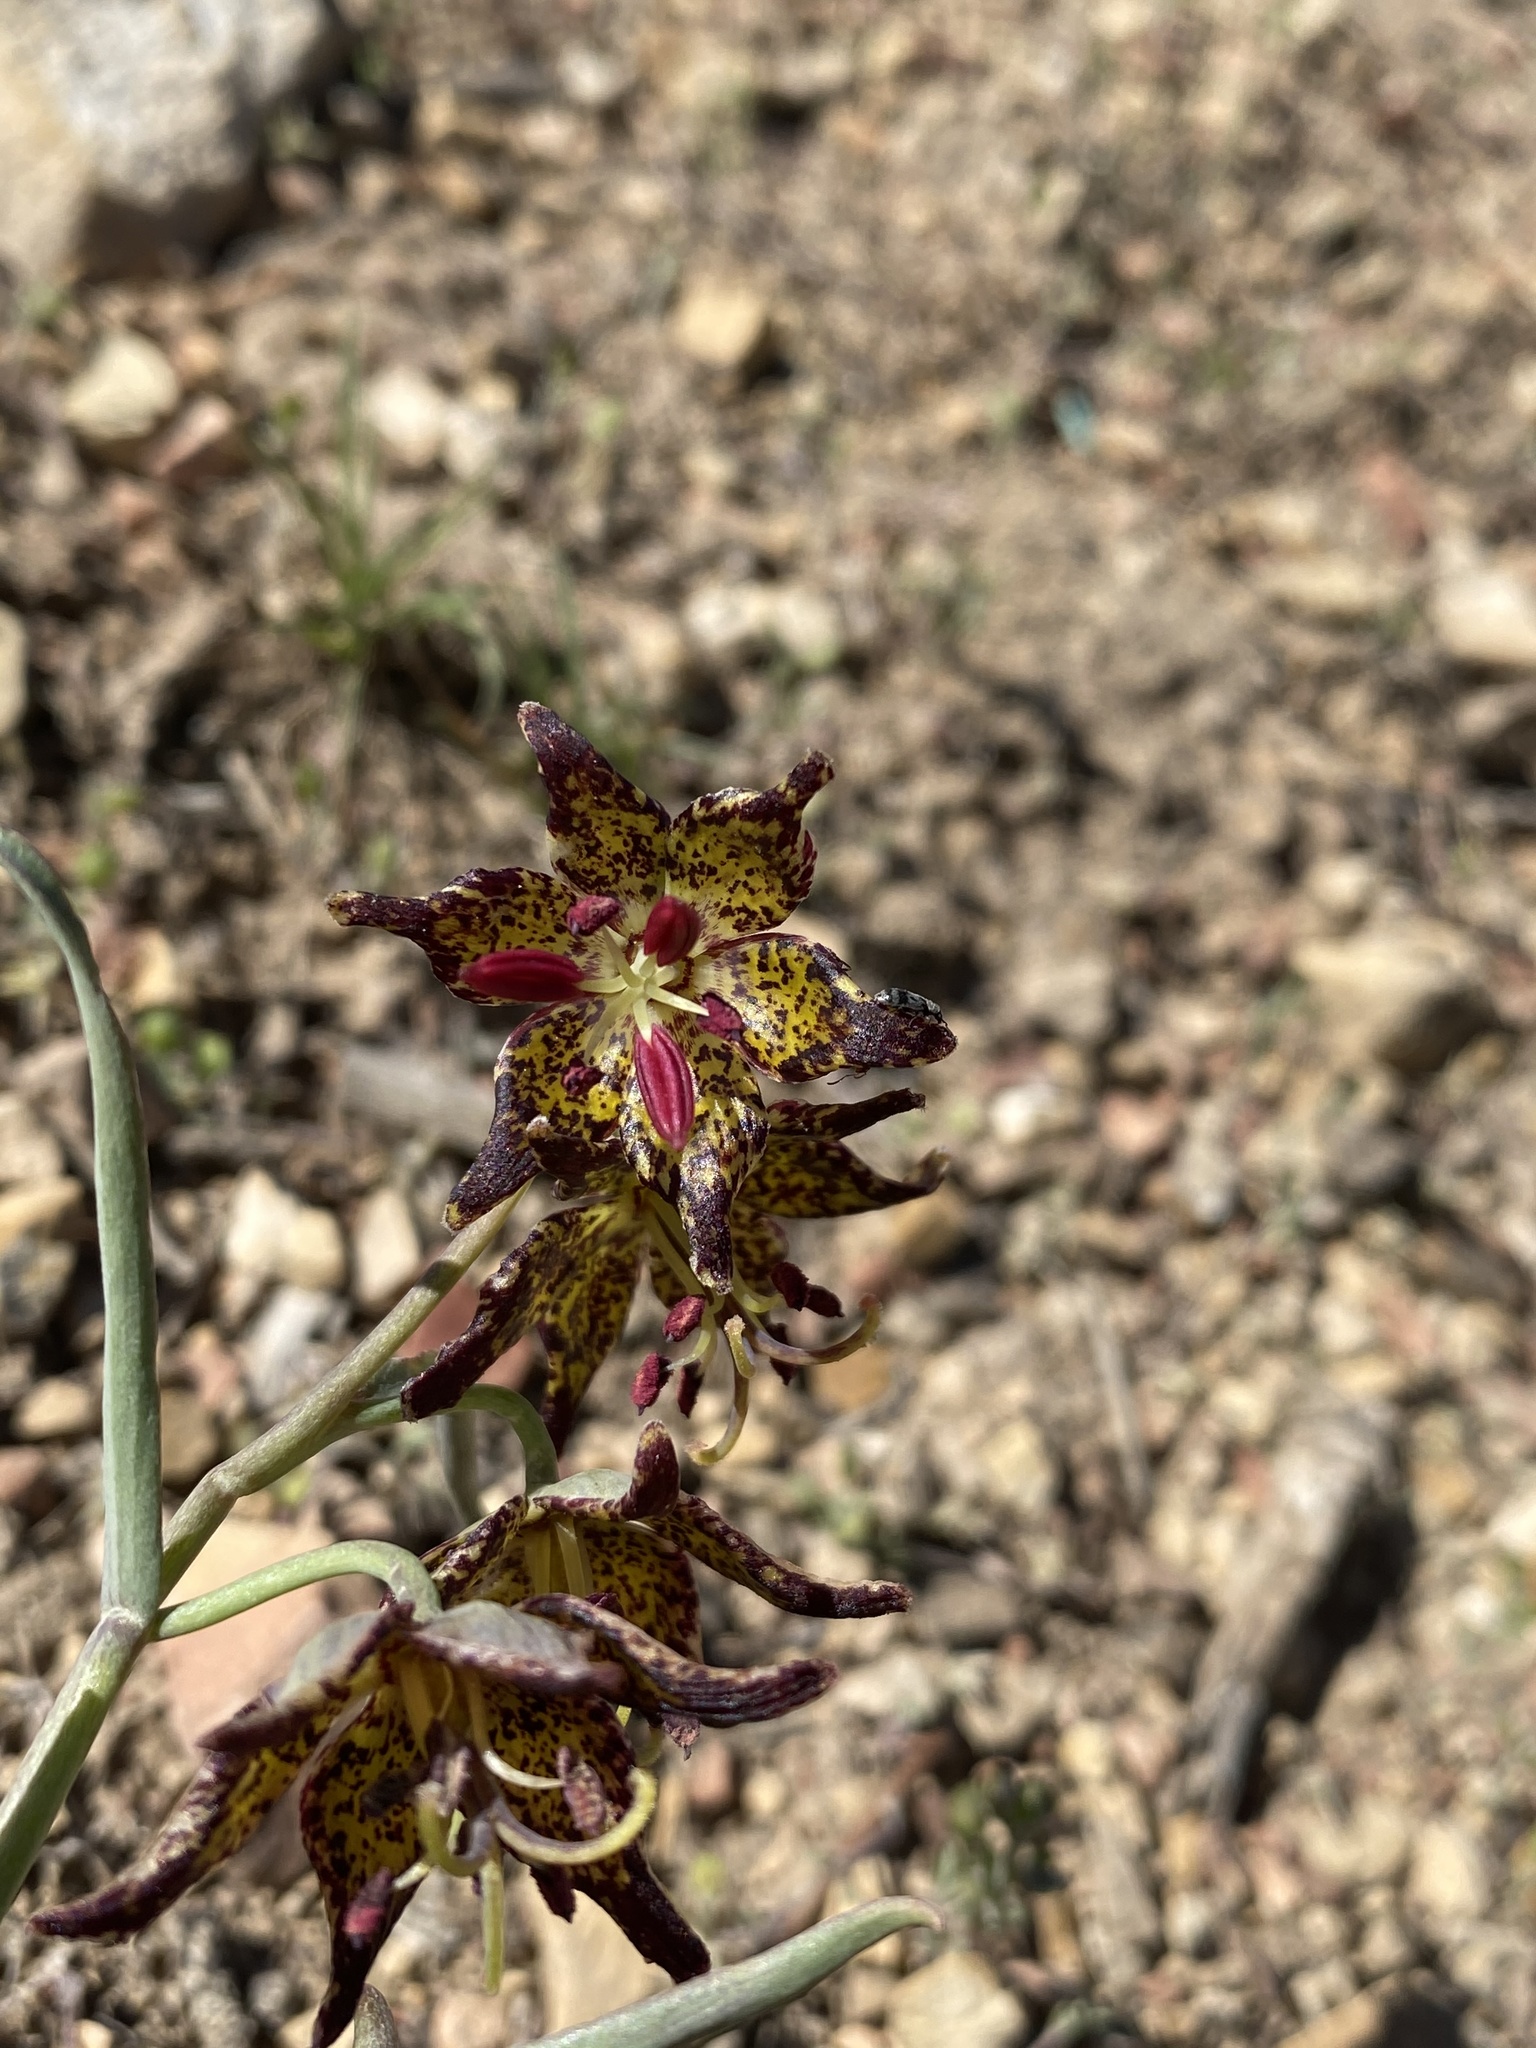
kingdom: Plantae
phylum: Tracheophyta
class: Liliopsida
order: Liliales
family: Liliaceae
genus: Fritillaria
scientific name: Fritillaria atropurpurea
